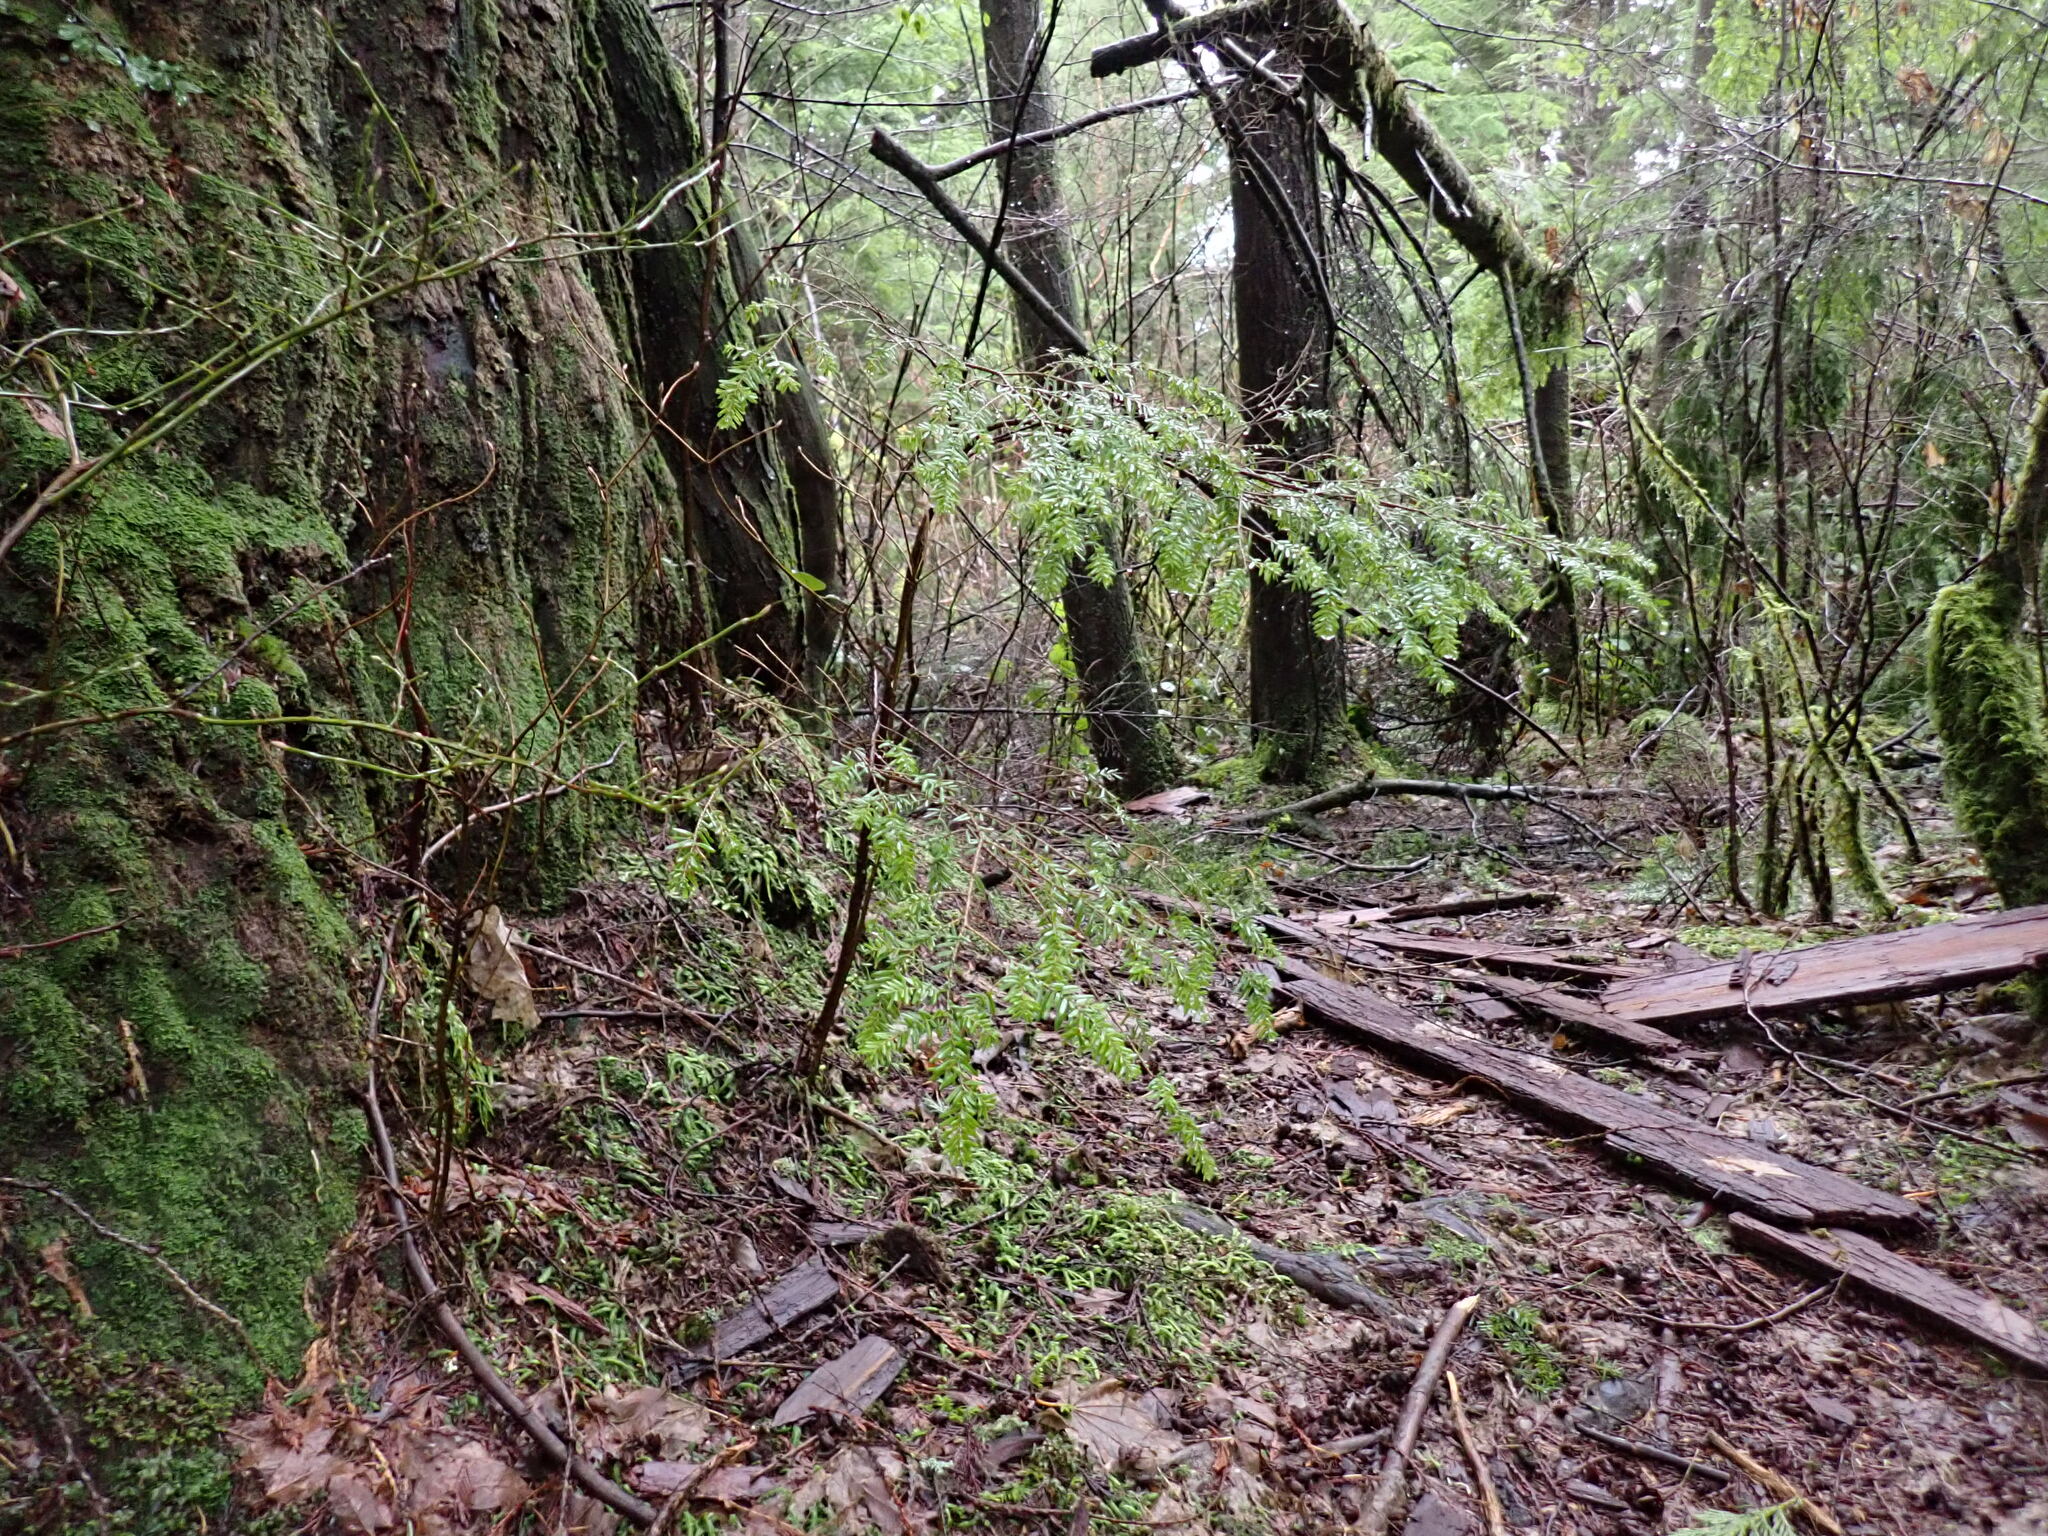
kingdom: Plantae
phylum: Tracheophyta
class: Pinopsida
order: Pinales
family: Pinaceae
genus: Tsuga
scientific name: Tsuga heterophylla
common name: Western hemlock
